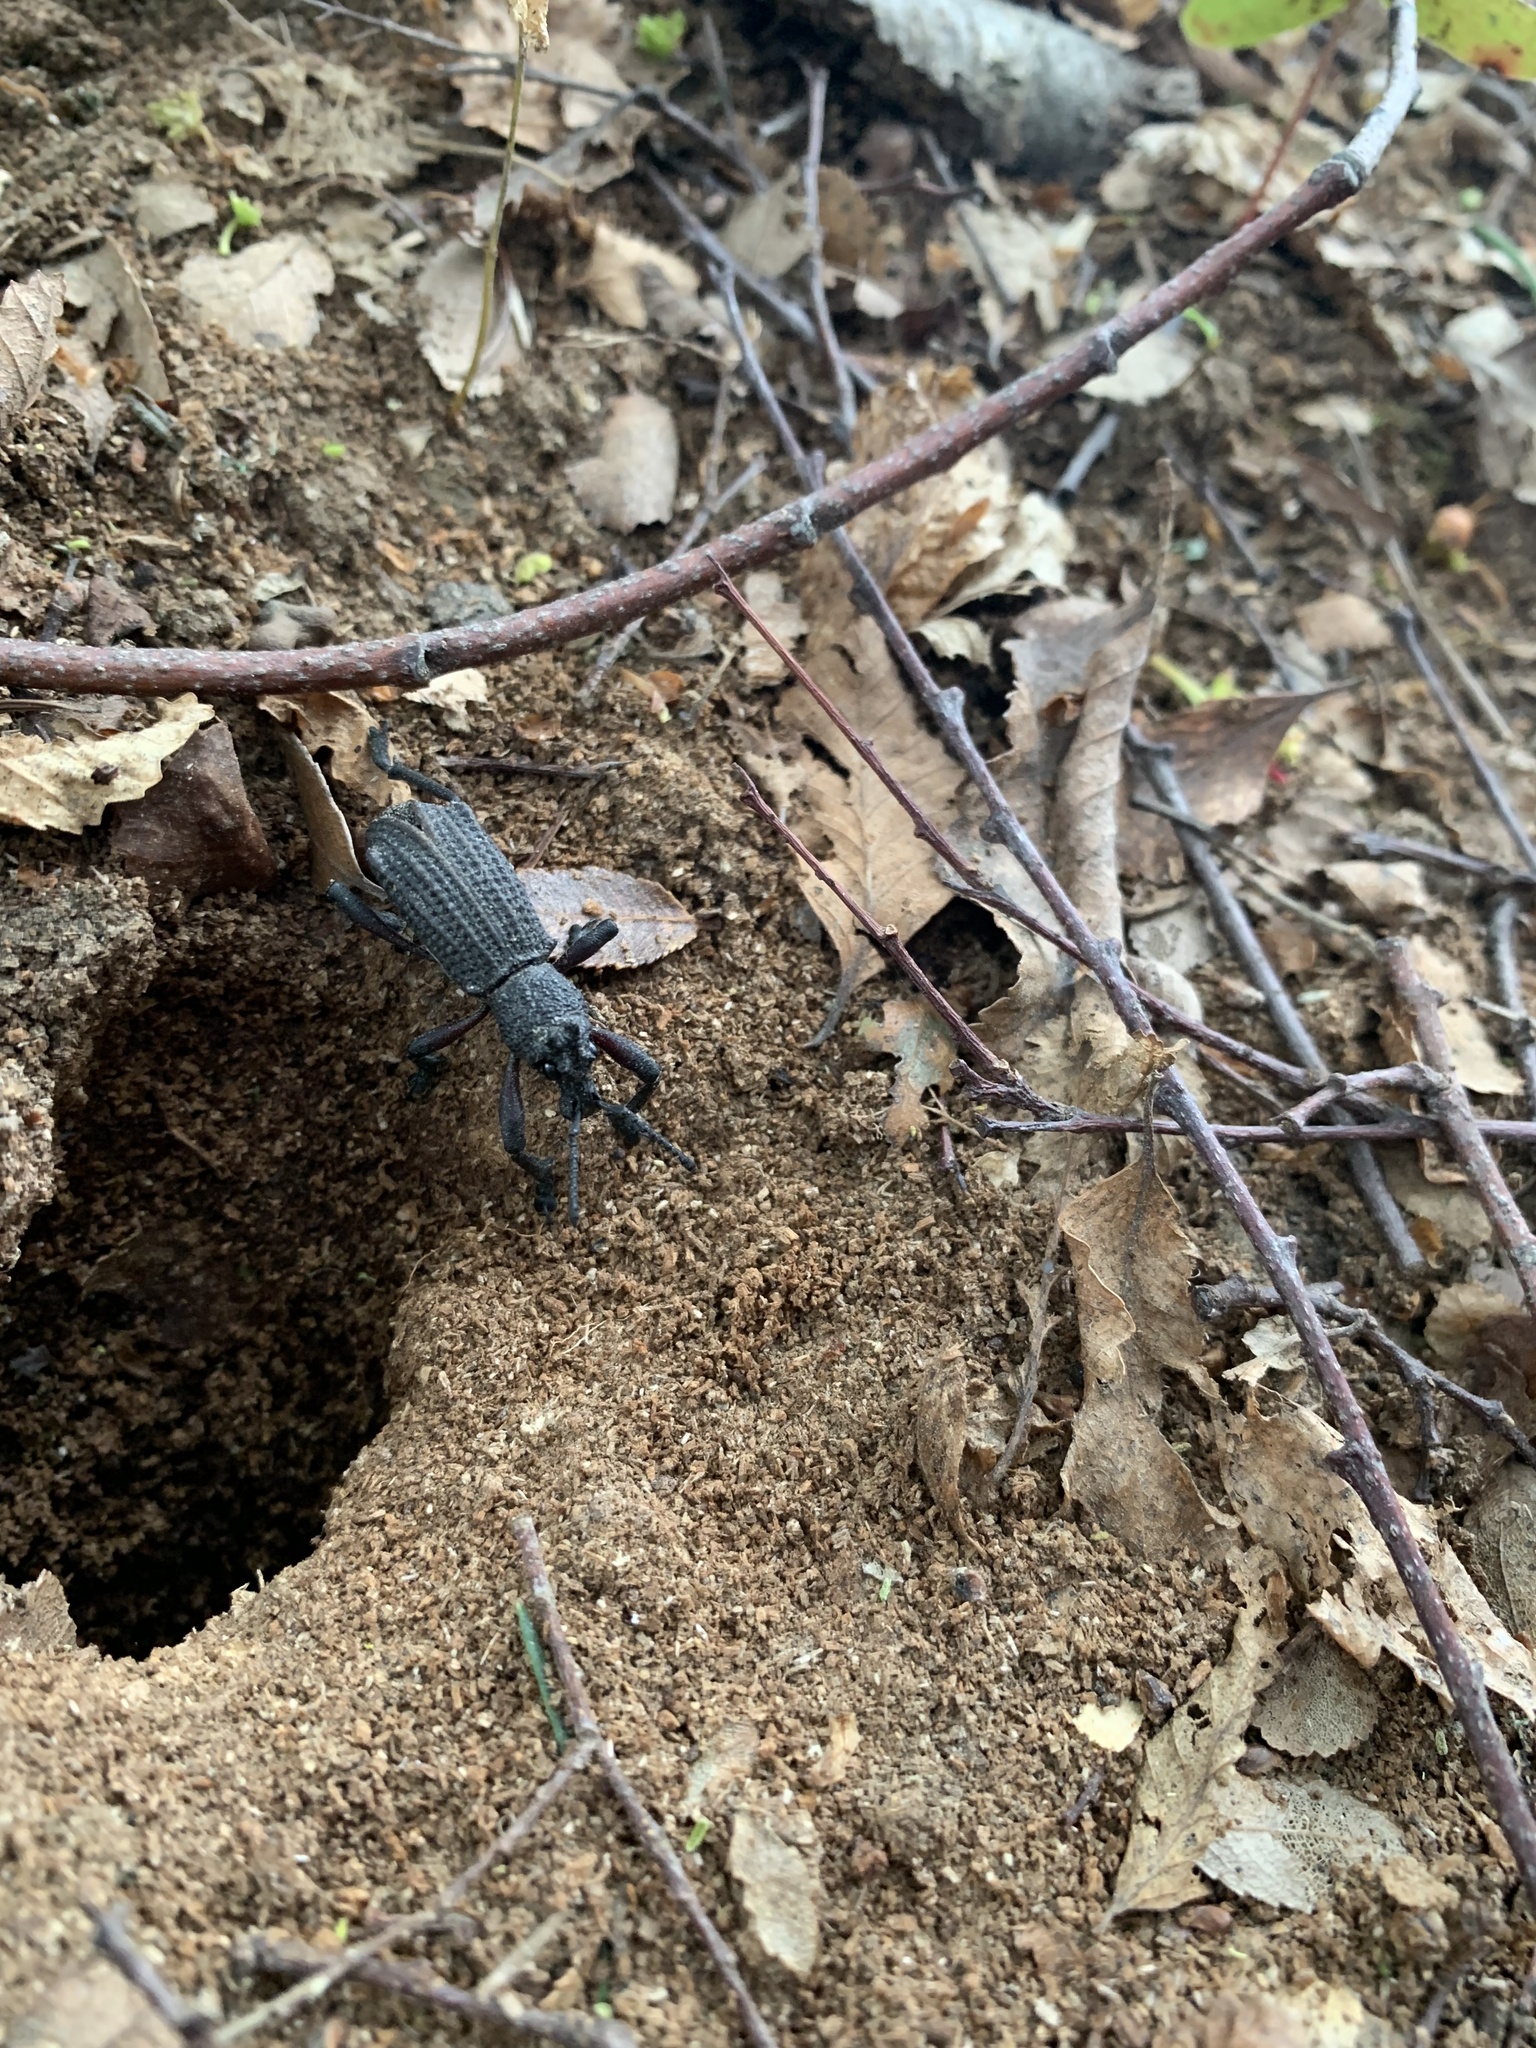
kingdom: Animalia
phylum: Arthropoda
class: Insecta
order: Coleoptera
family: Curculionidae
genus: Aegorhinus
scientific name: Aegorhinus
